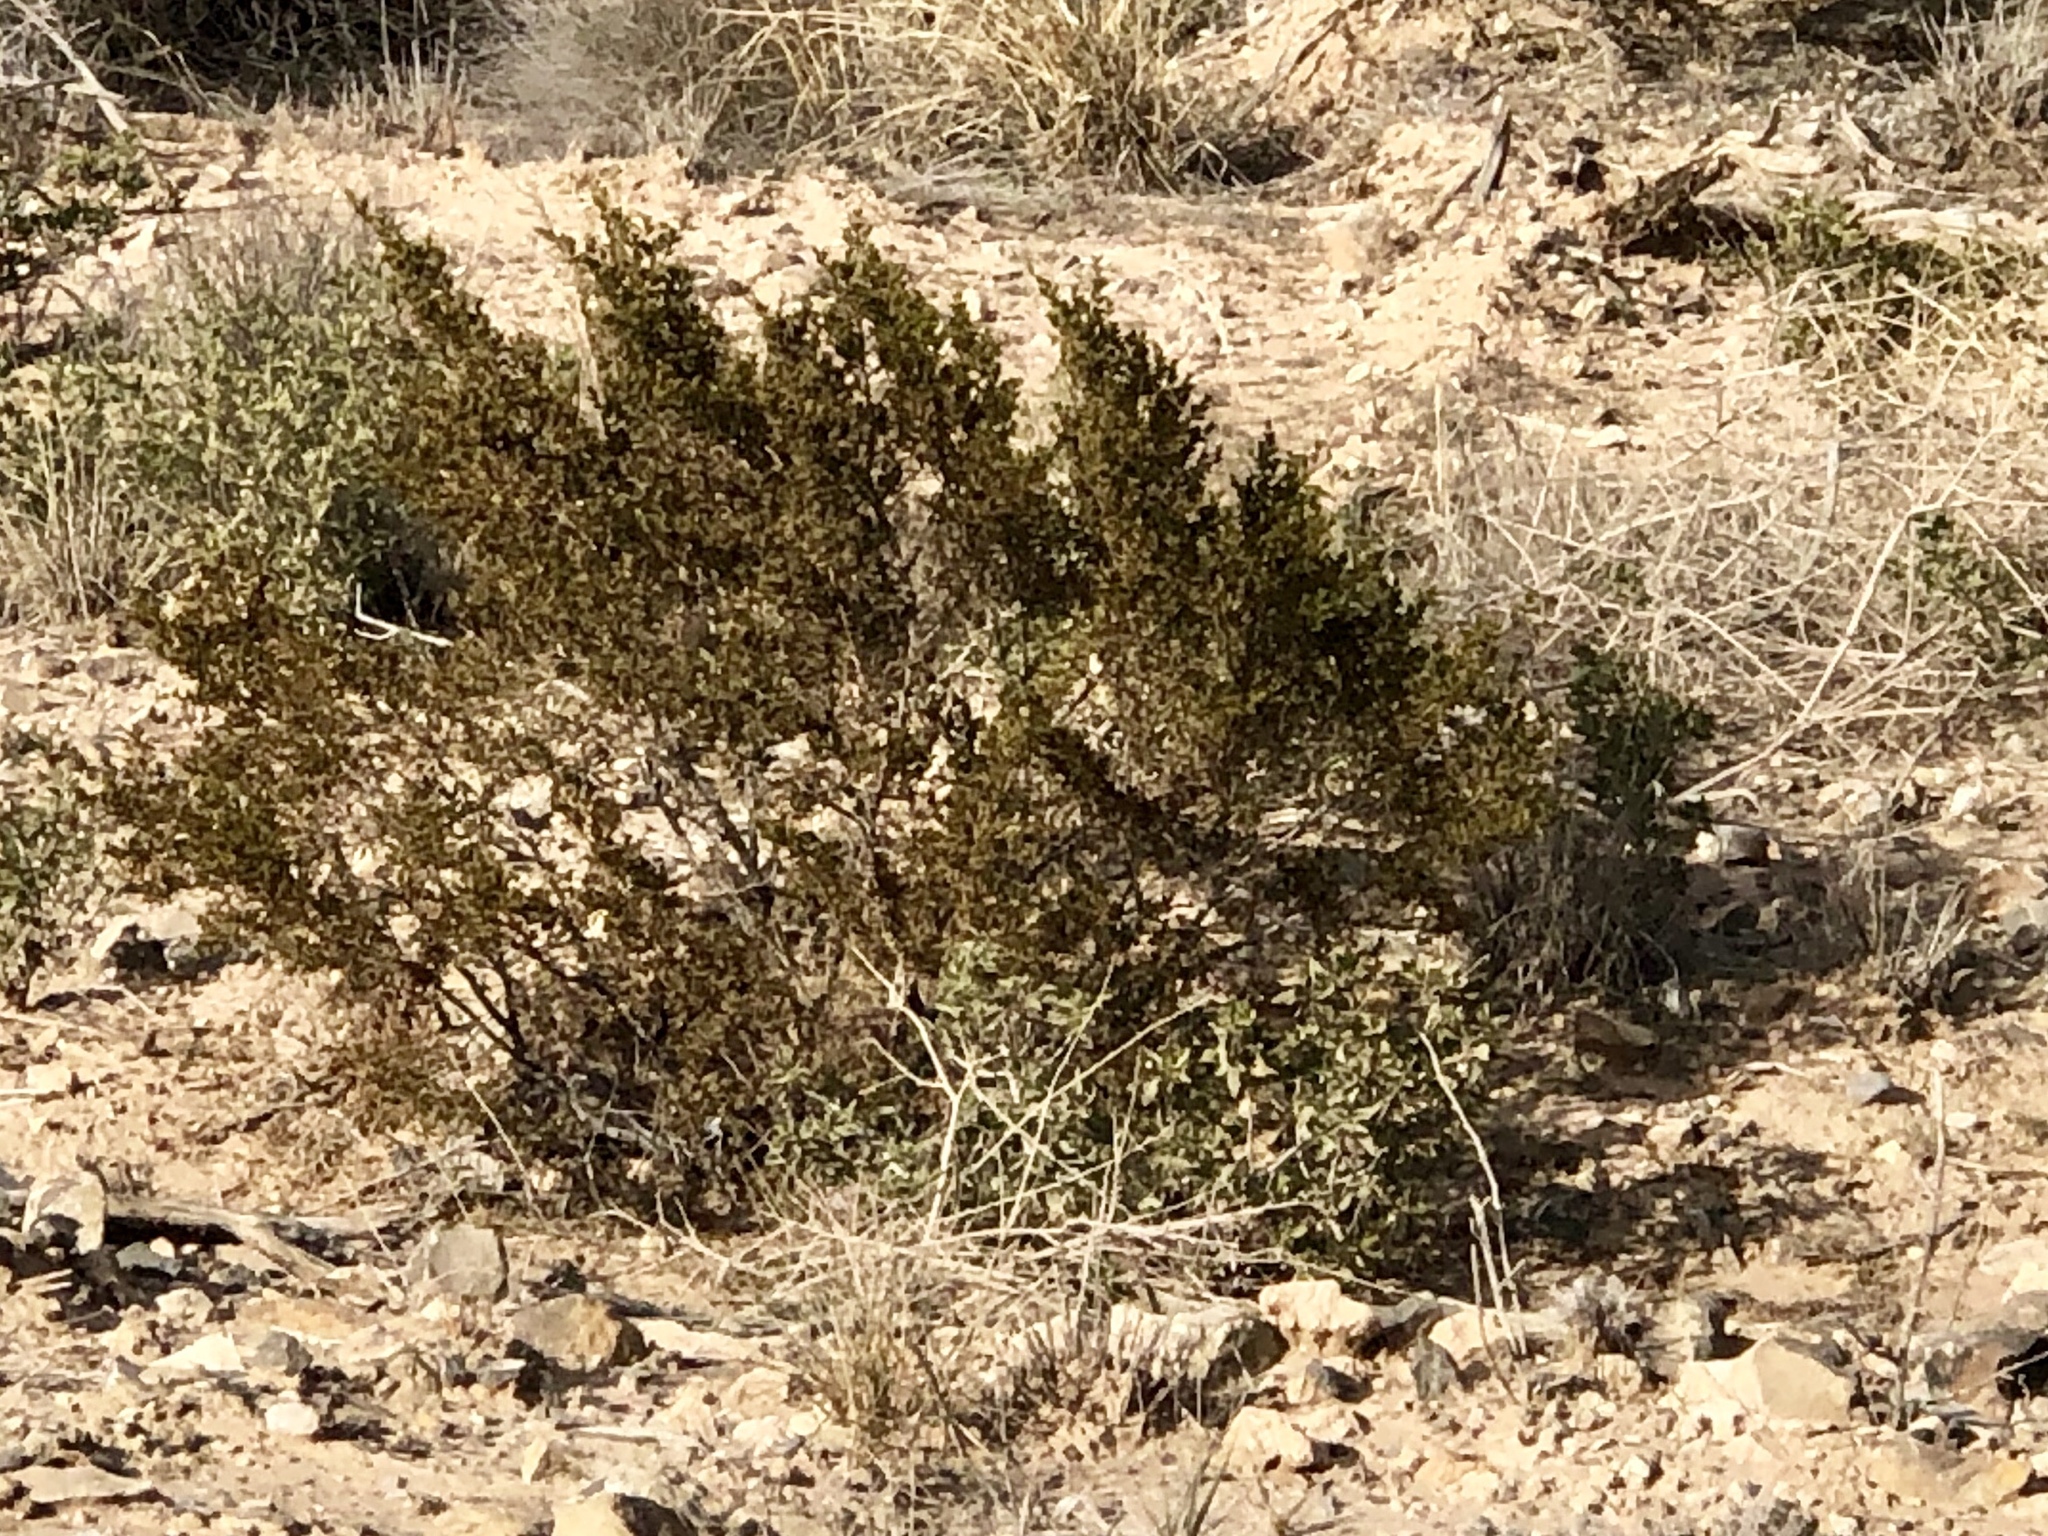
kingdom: Plantae
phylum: Tracheophyta
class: Magnoliopsida
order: Zygophyllales
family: Zygophyllaceae
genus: Larrea
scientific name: Larrea tridentata
